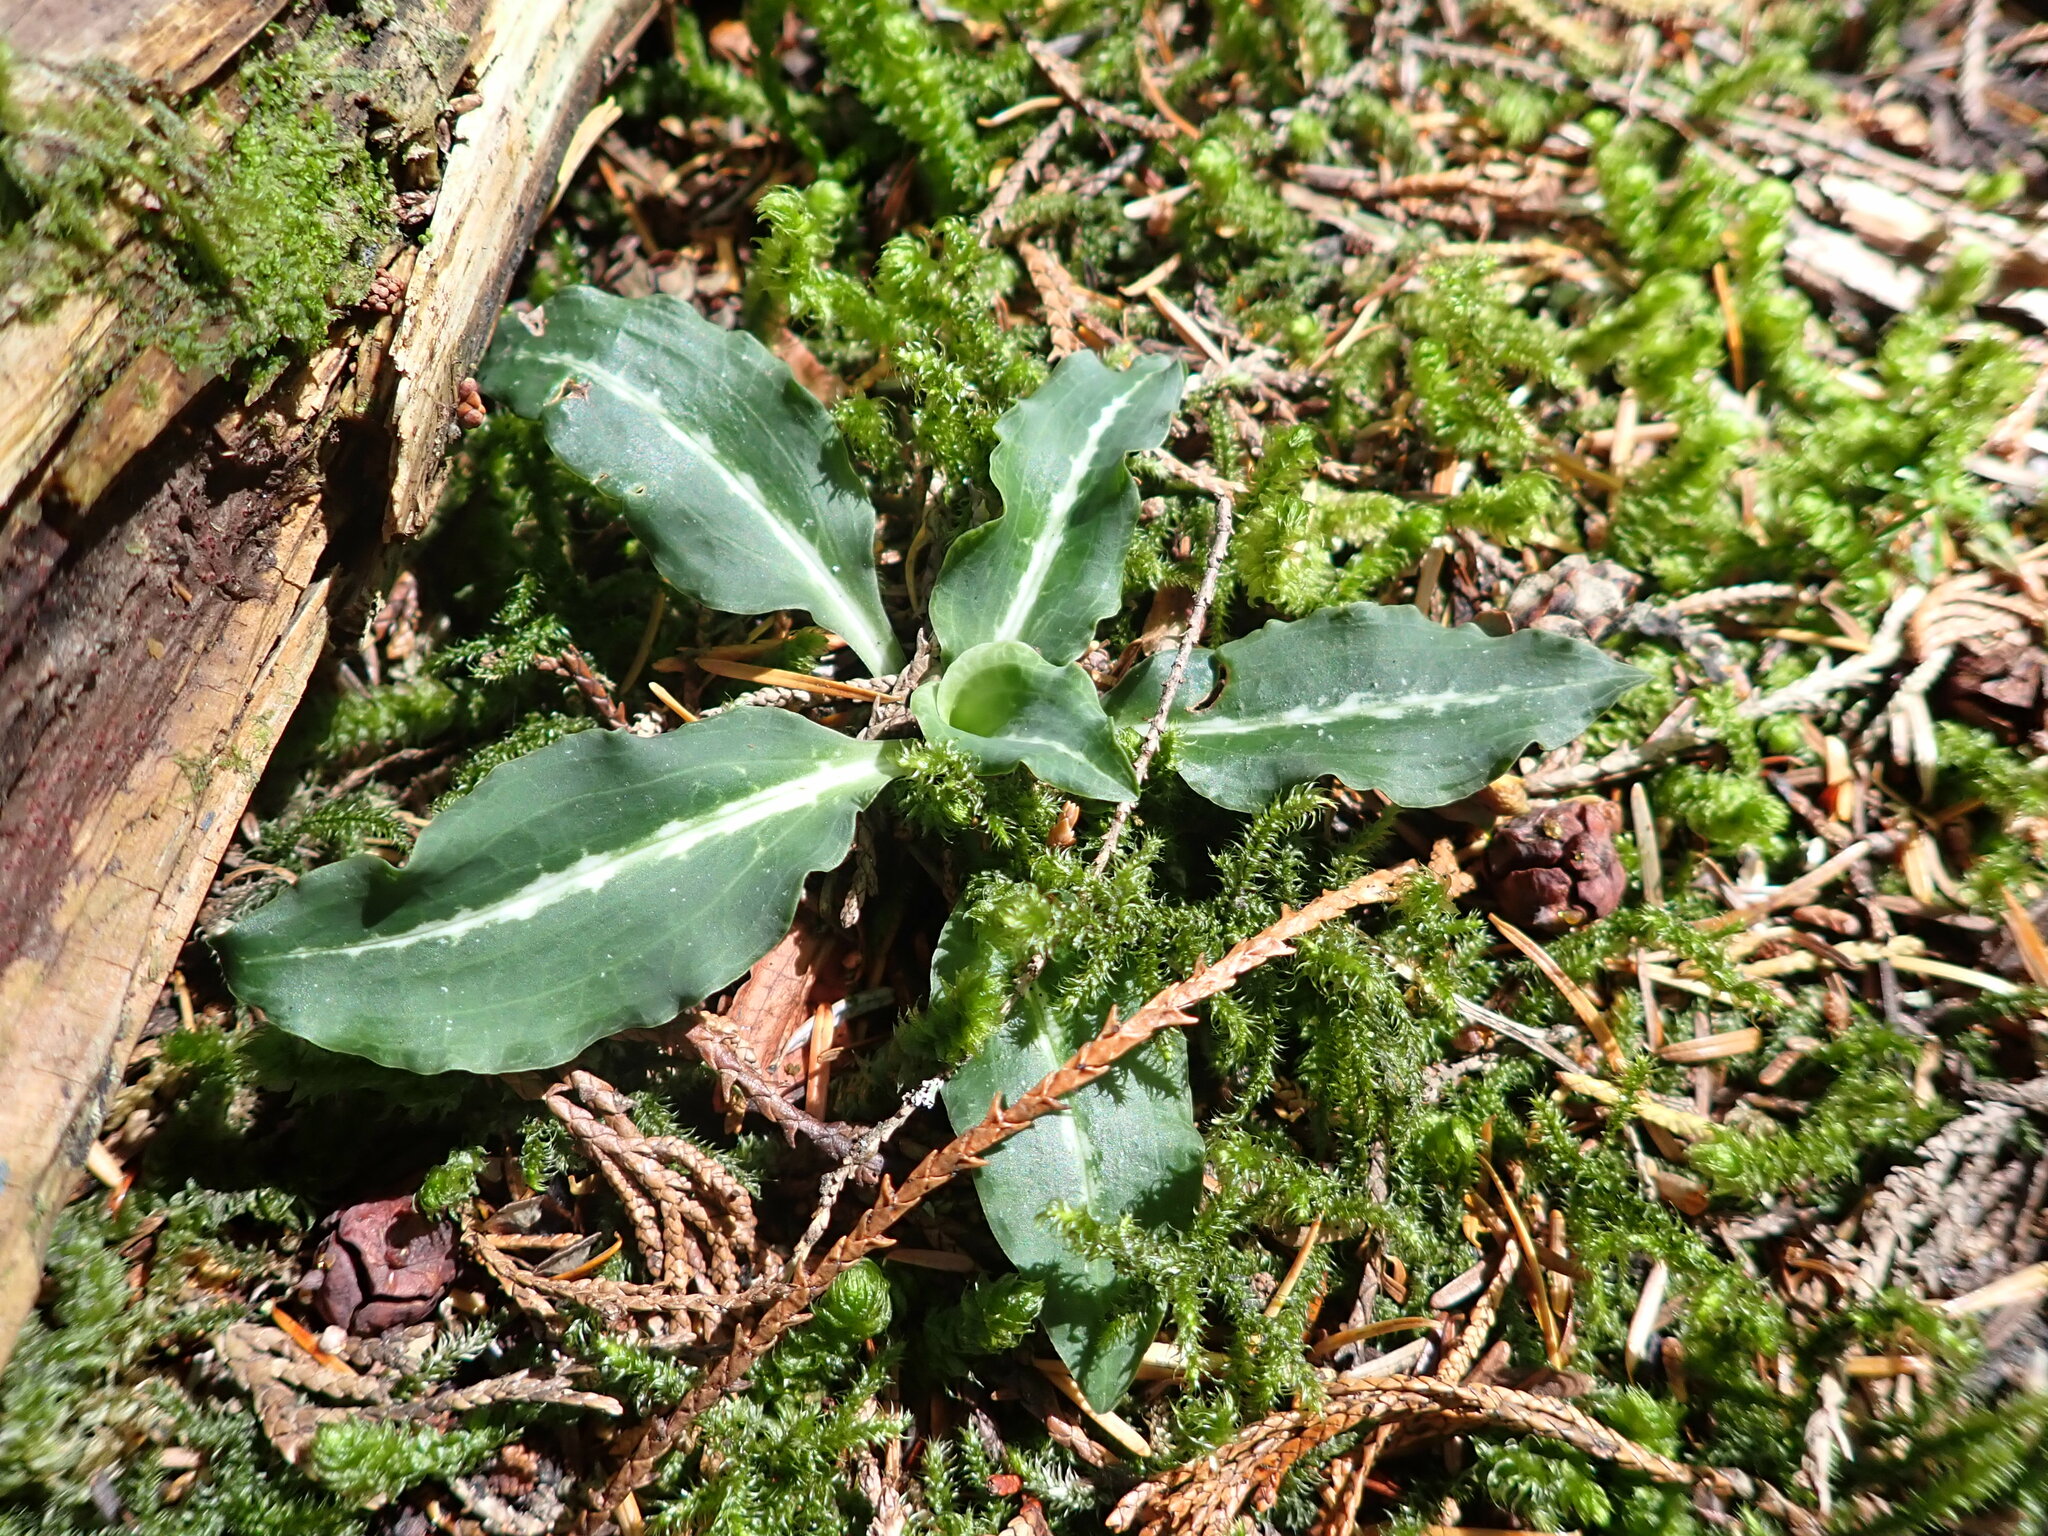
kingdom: Plantae
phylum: Tracheophyta
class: Liliopsida
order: Asparagales
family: Orchidaceae
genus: Goodyera
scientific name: Goodyera oblongifolia
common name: Giant rattlesnake-plantain
